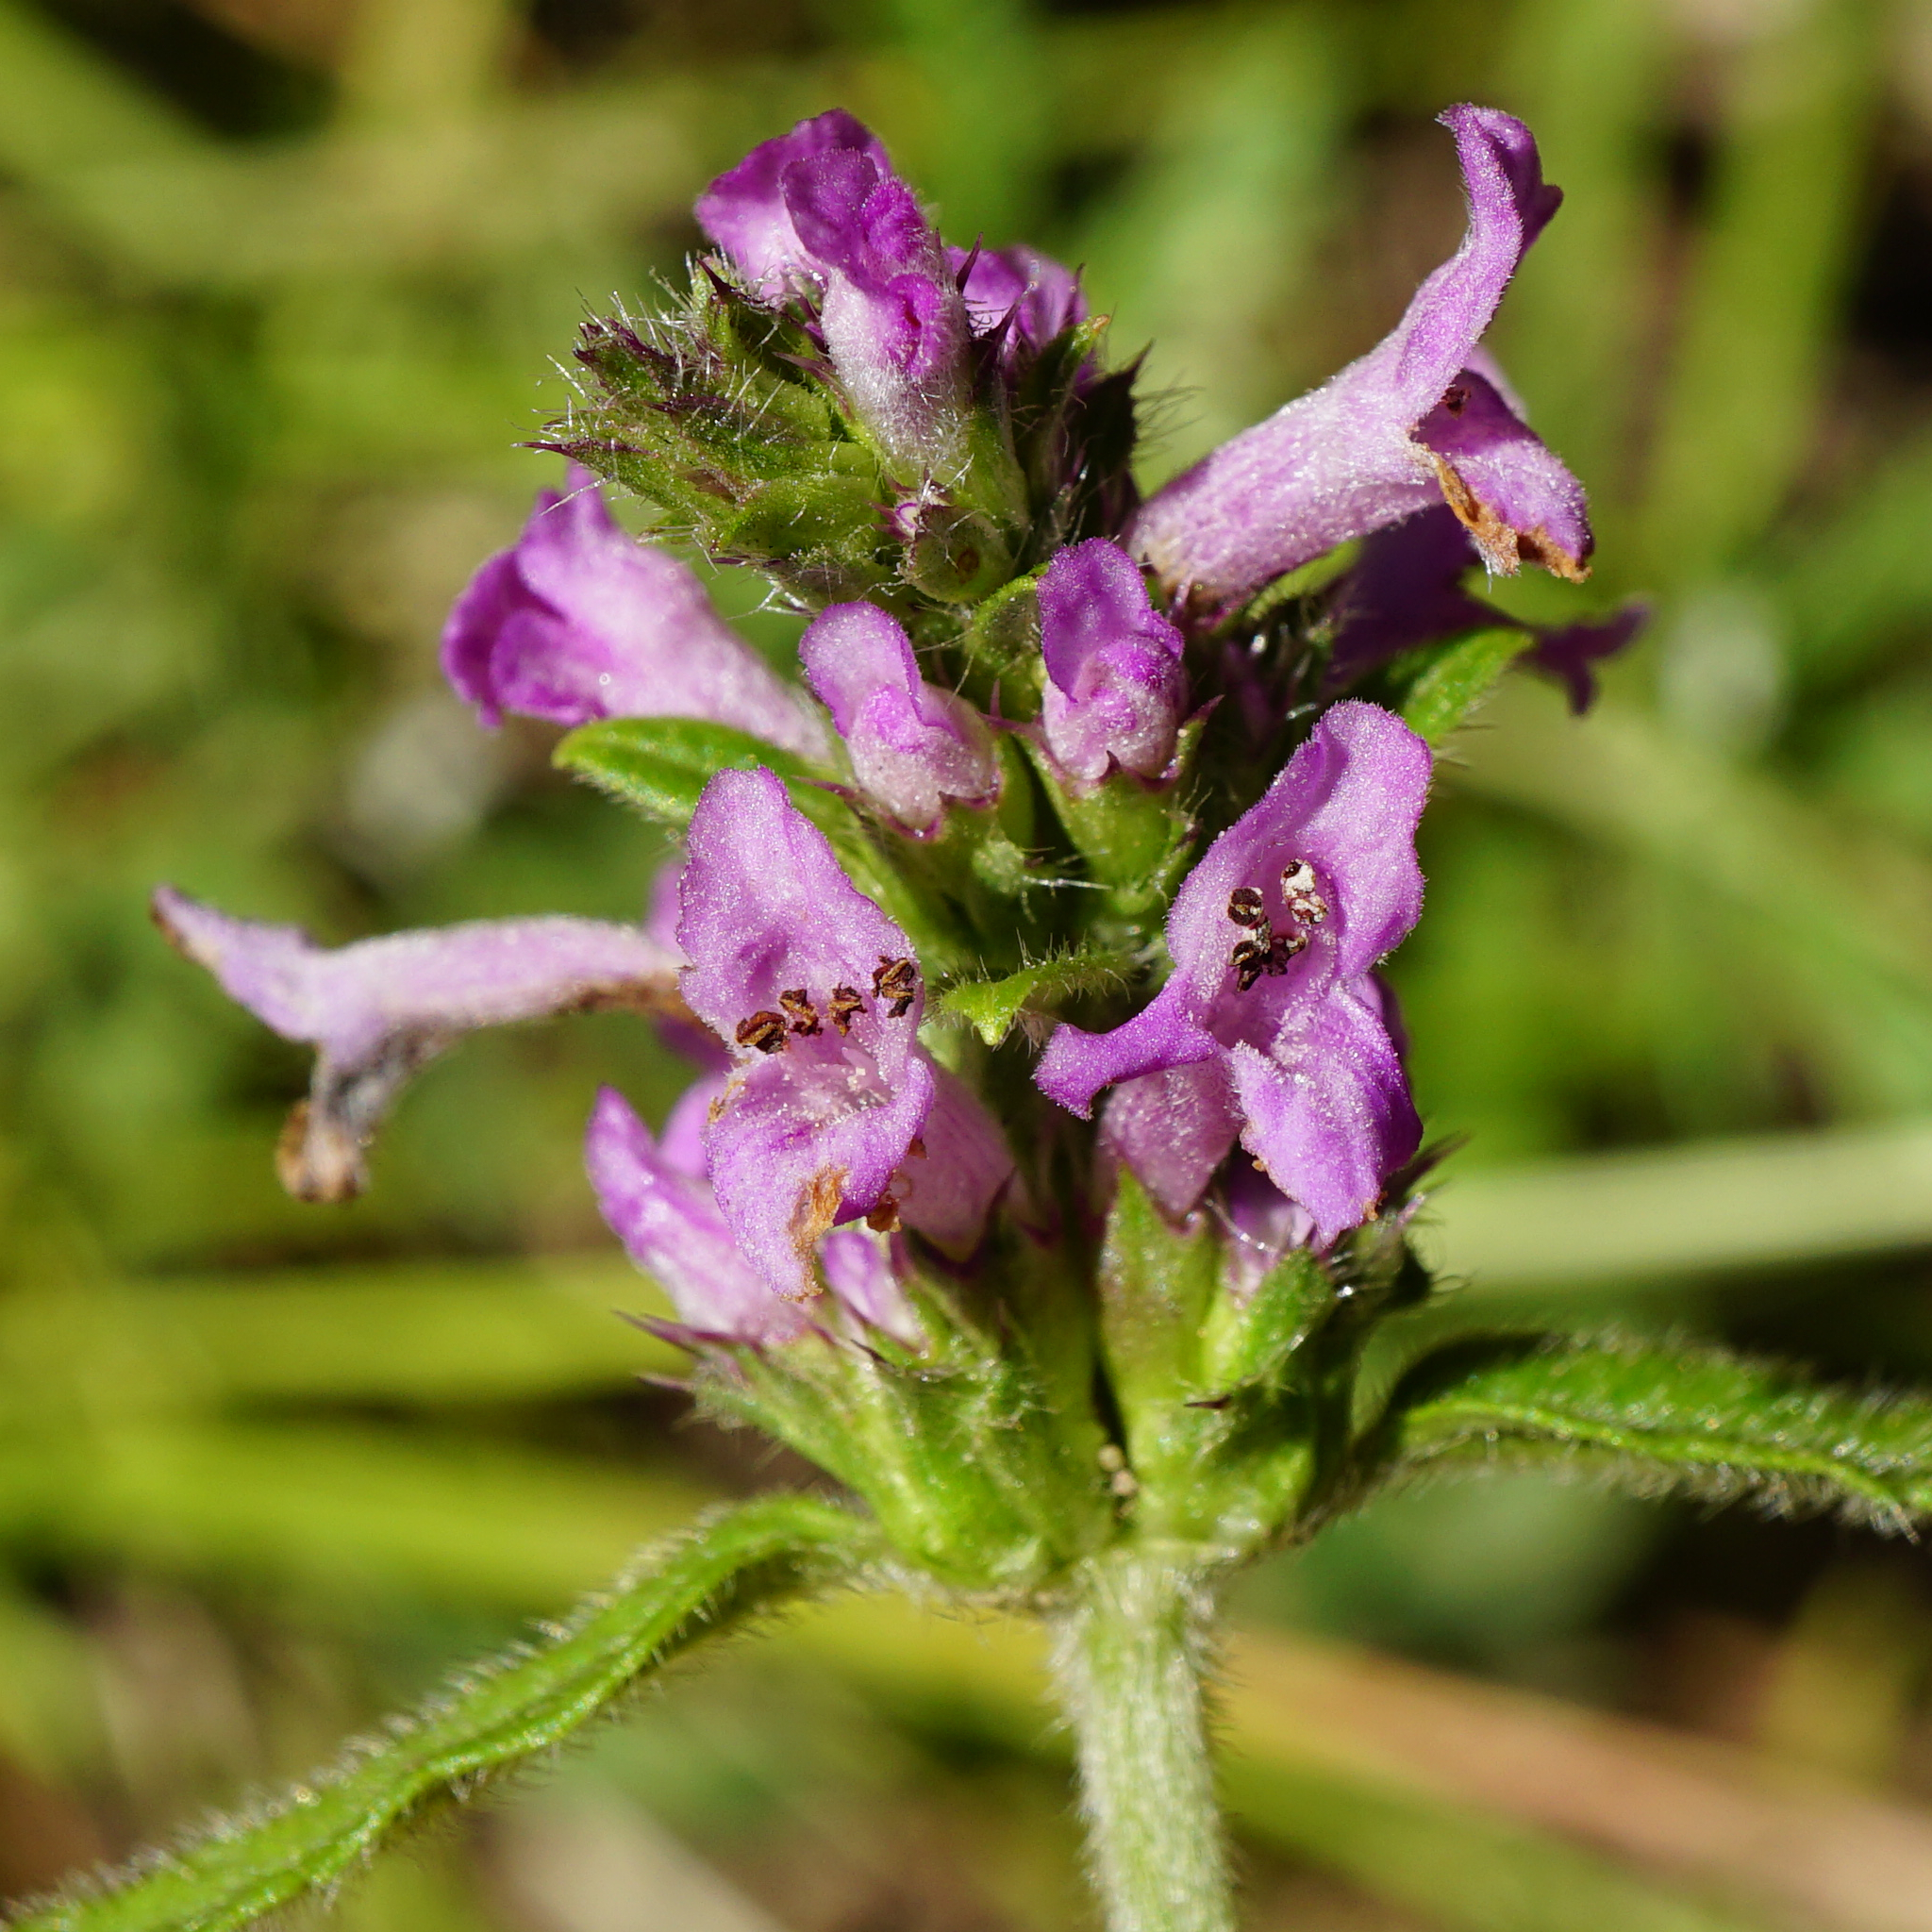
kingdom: Plantae
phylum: Tracheophyta
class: Magnoliopsida
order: Lamiales
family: Lamiaceae
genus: Betonica
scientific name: Betonica officinalis
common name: Bishop's-wort
